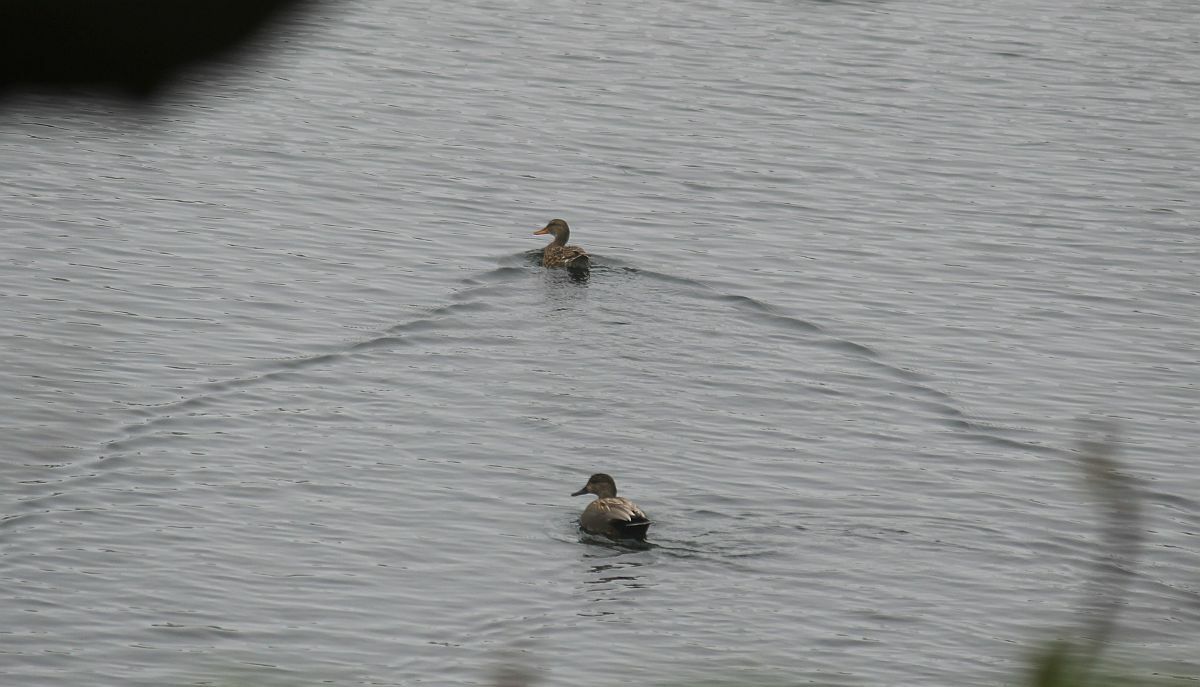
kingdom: Animalia
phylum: Chordata
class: Aves
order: Anseriformes
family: Anatidae
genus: Mareca
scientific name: Mareca strepera
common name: Gadwall
